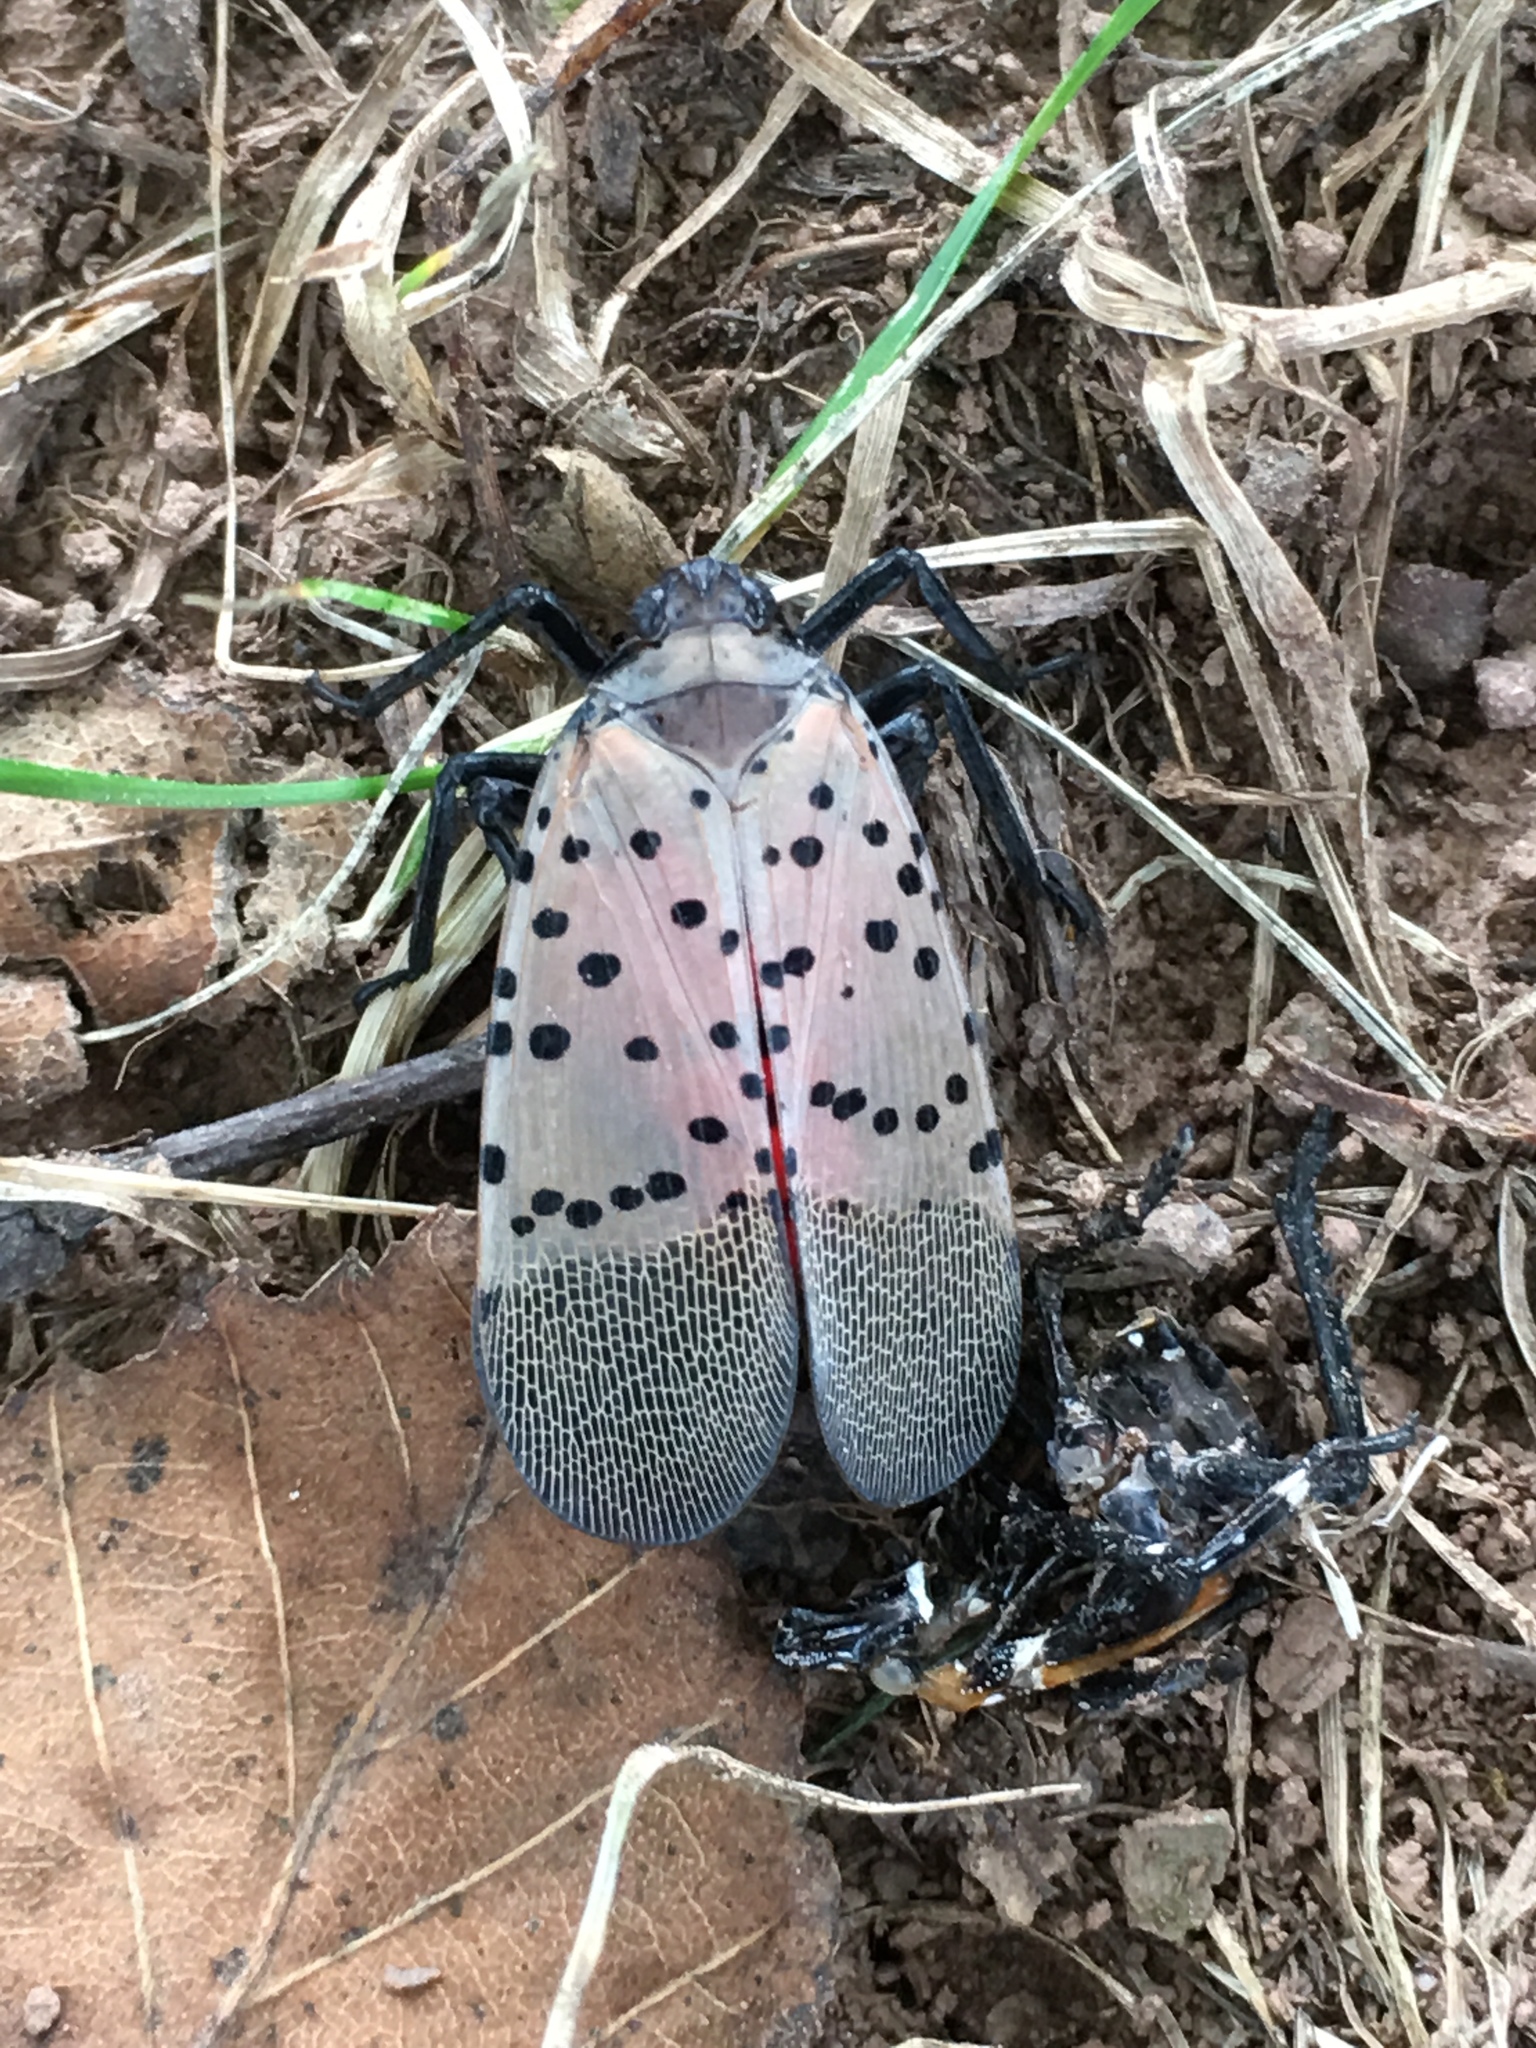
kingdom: Animalia
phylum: Arthropoda
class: Insecta
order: Hemiptera
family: Fulgoridae
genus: Lycorma
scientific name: Lycorma delicatula
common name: Spotted lanternfly
